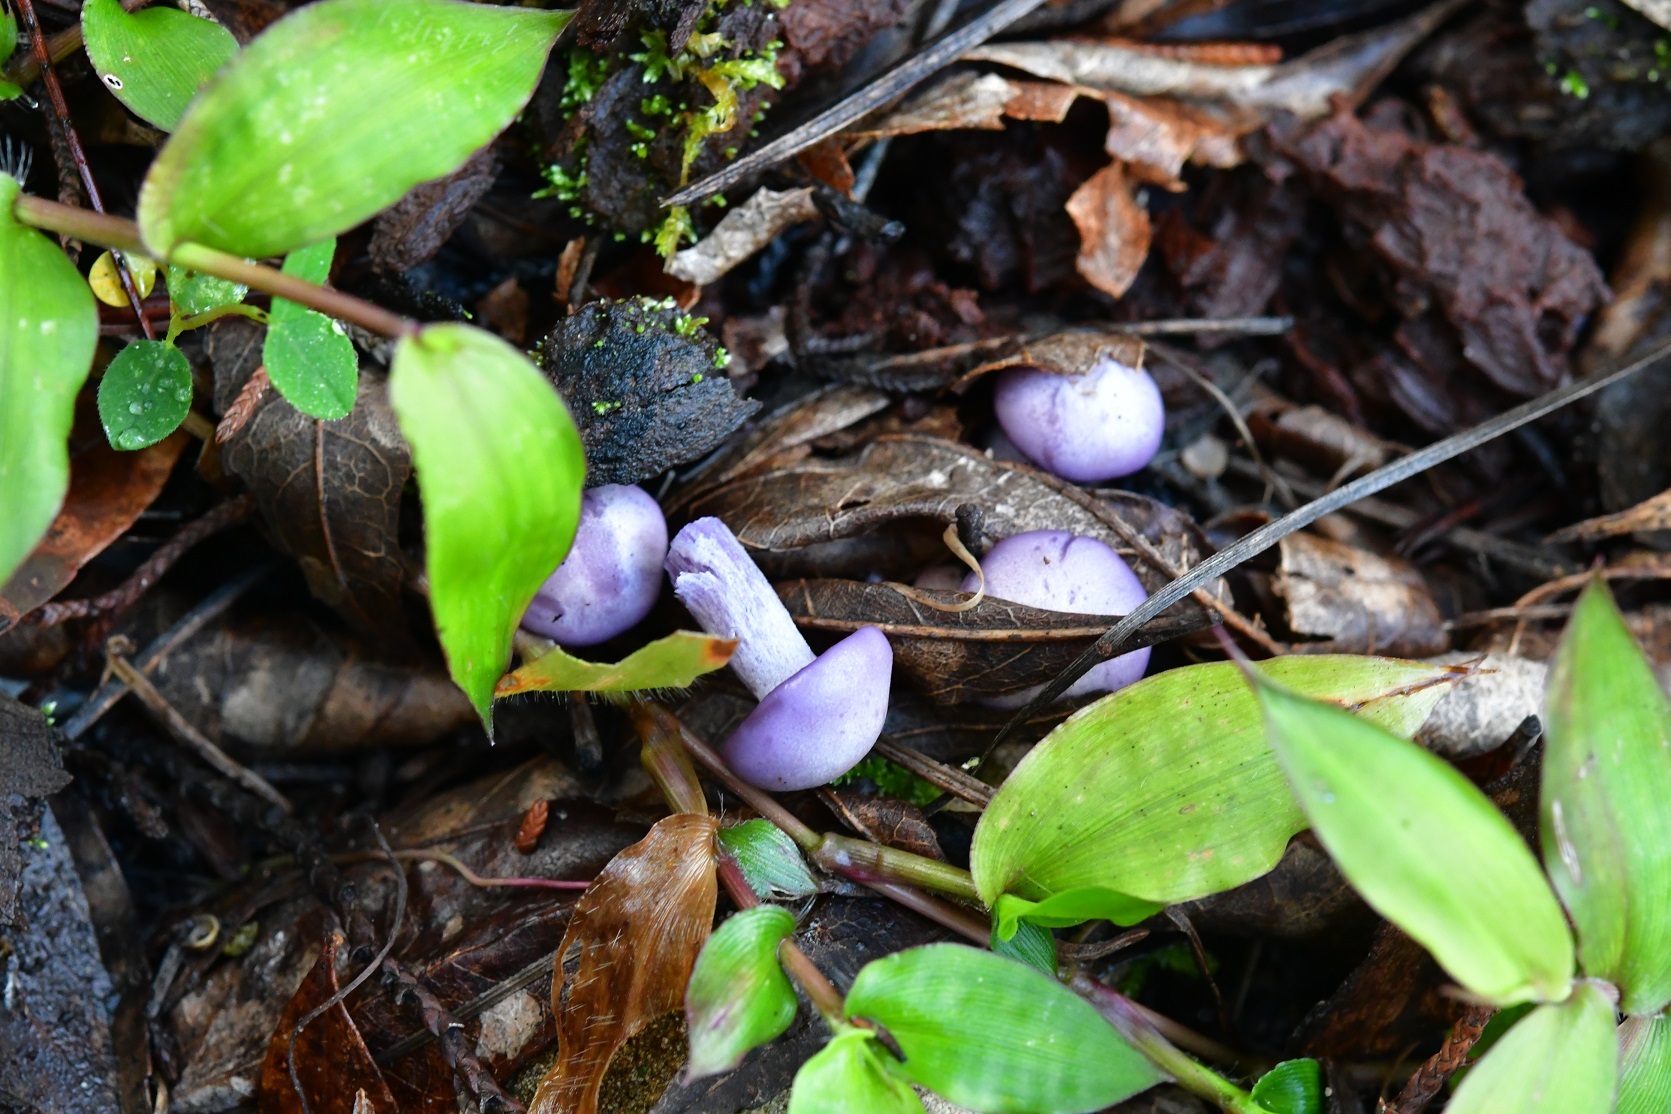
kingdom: Fungi
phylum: Basidiomycota
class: Agaricomycetes
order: Agaricales
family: Tricholomataceae
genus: Collybia
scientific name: Collybia
